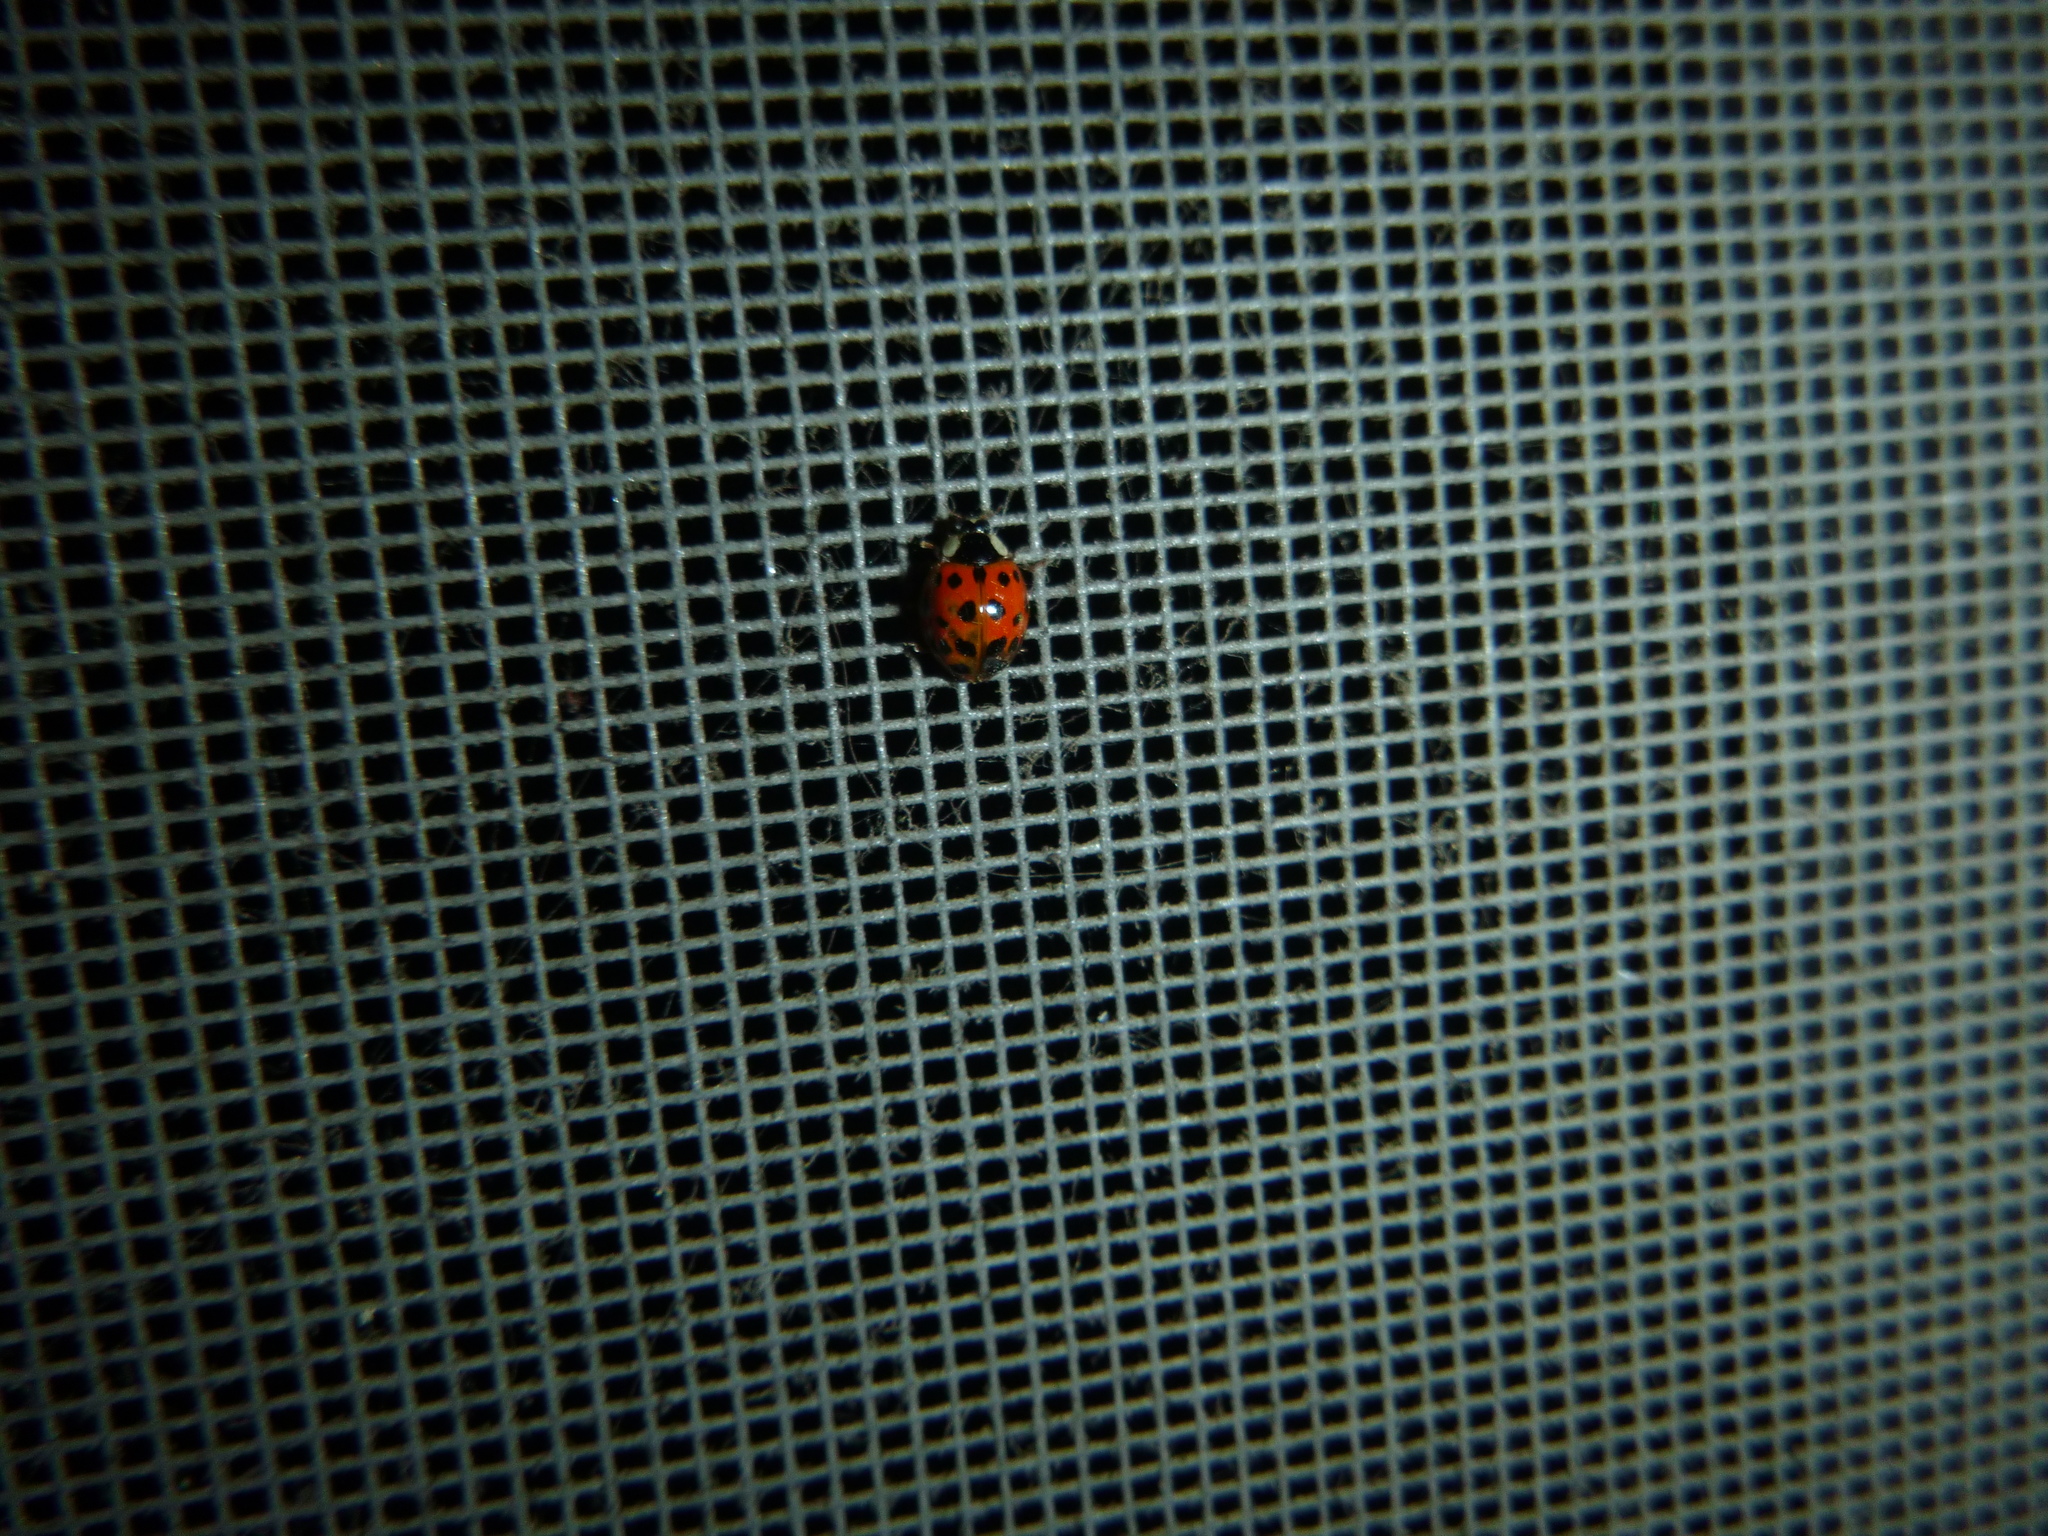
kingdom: Animalia
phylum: Arthropoda
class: Insecta
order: Coleoptera
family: Coccinellidae
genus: Harmonia
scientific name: Harmonia axyridis
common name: Harlequin ladybird
